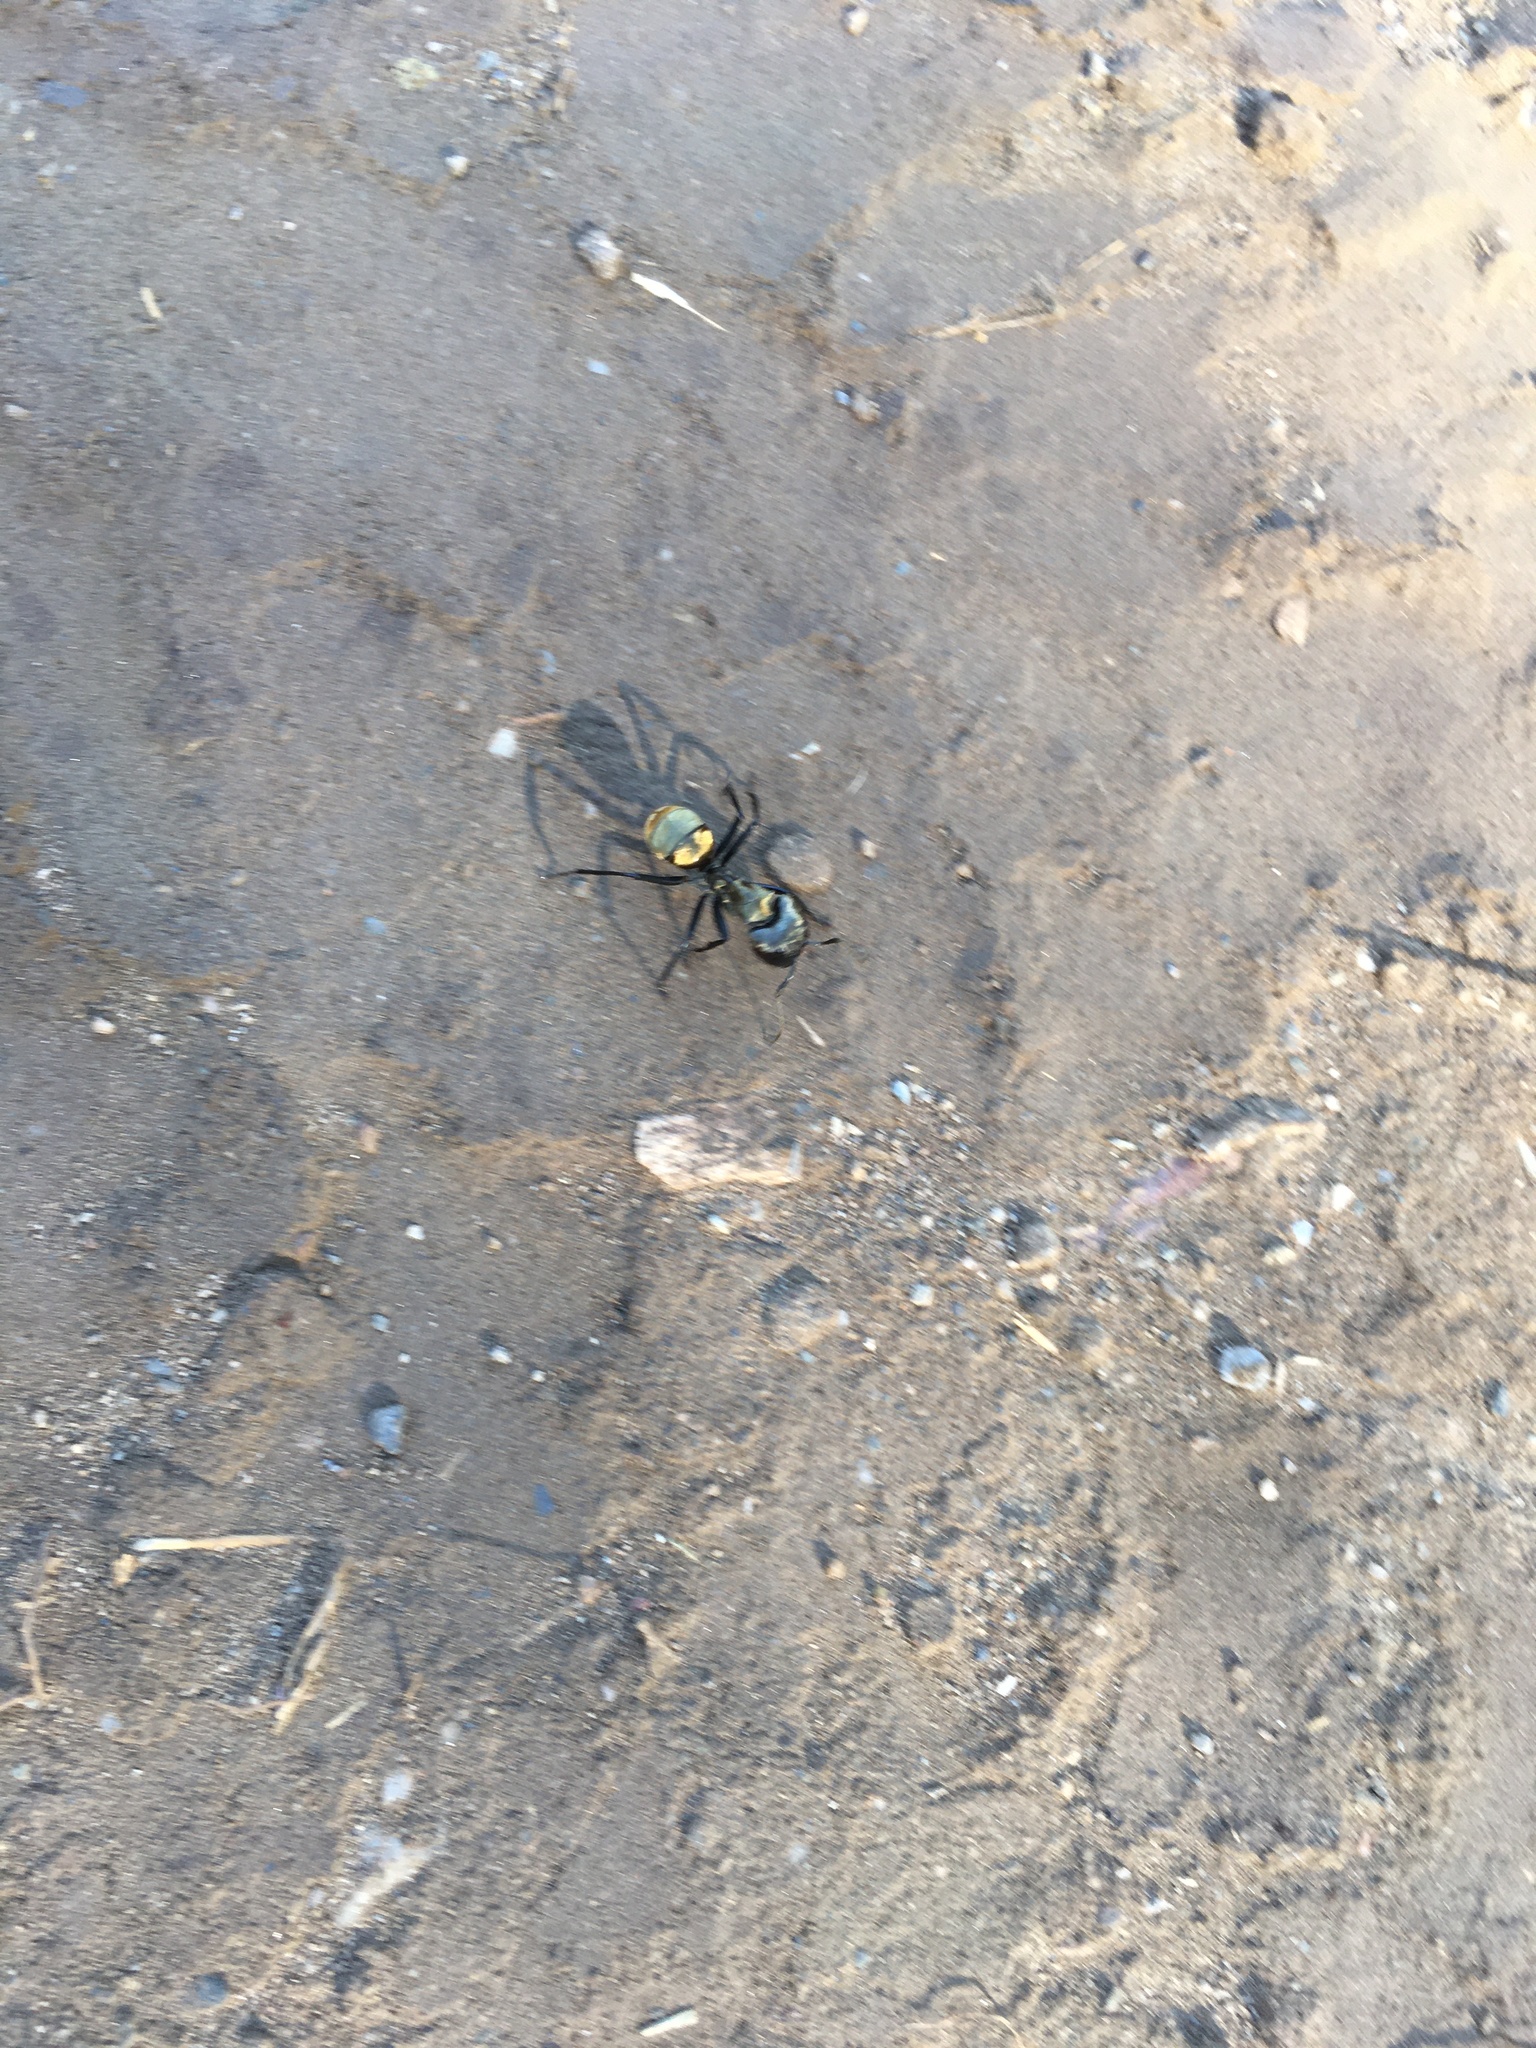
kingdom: Animalia
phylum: Arthropoda
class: Insecta
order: Hymenoptera
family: Formicidae
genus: Camponotus
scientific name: Camponotus sericeiventris
